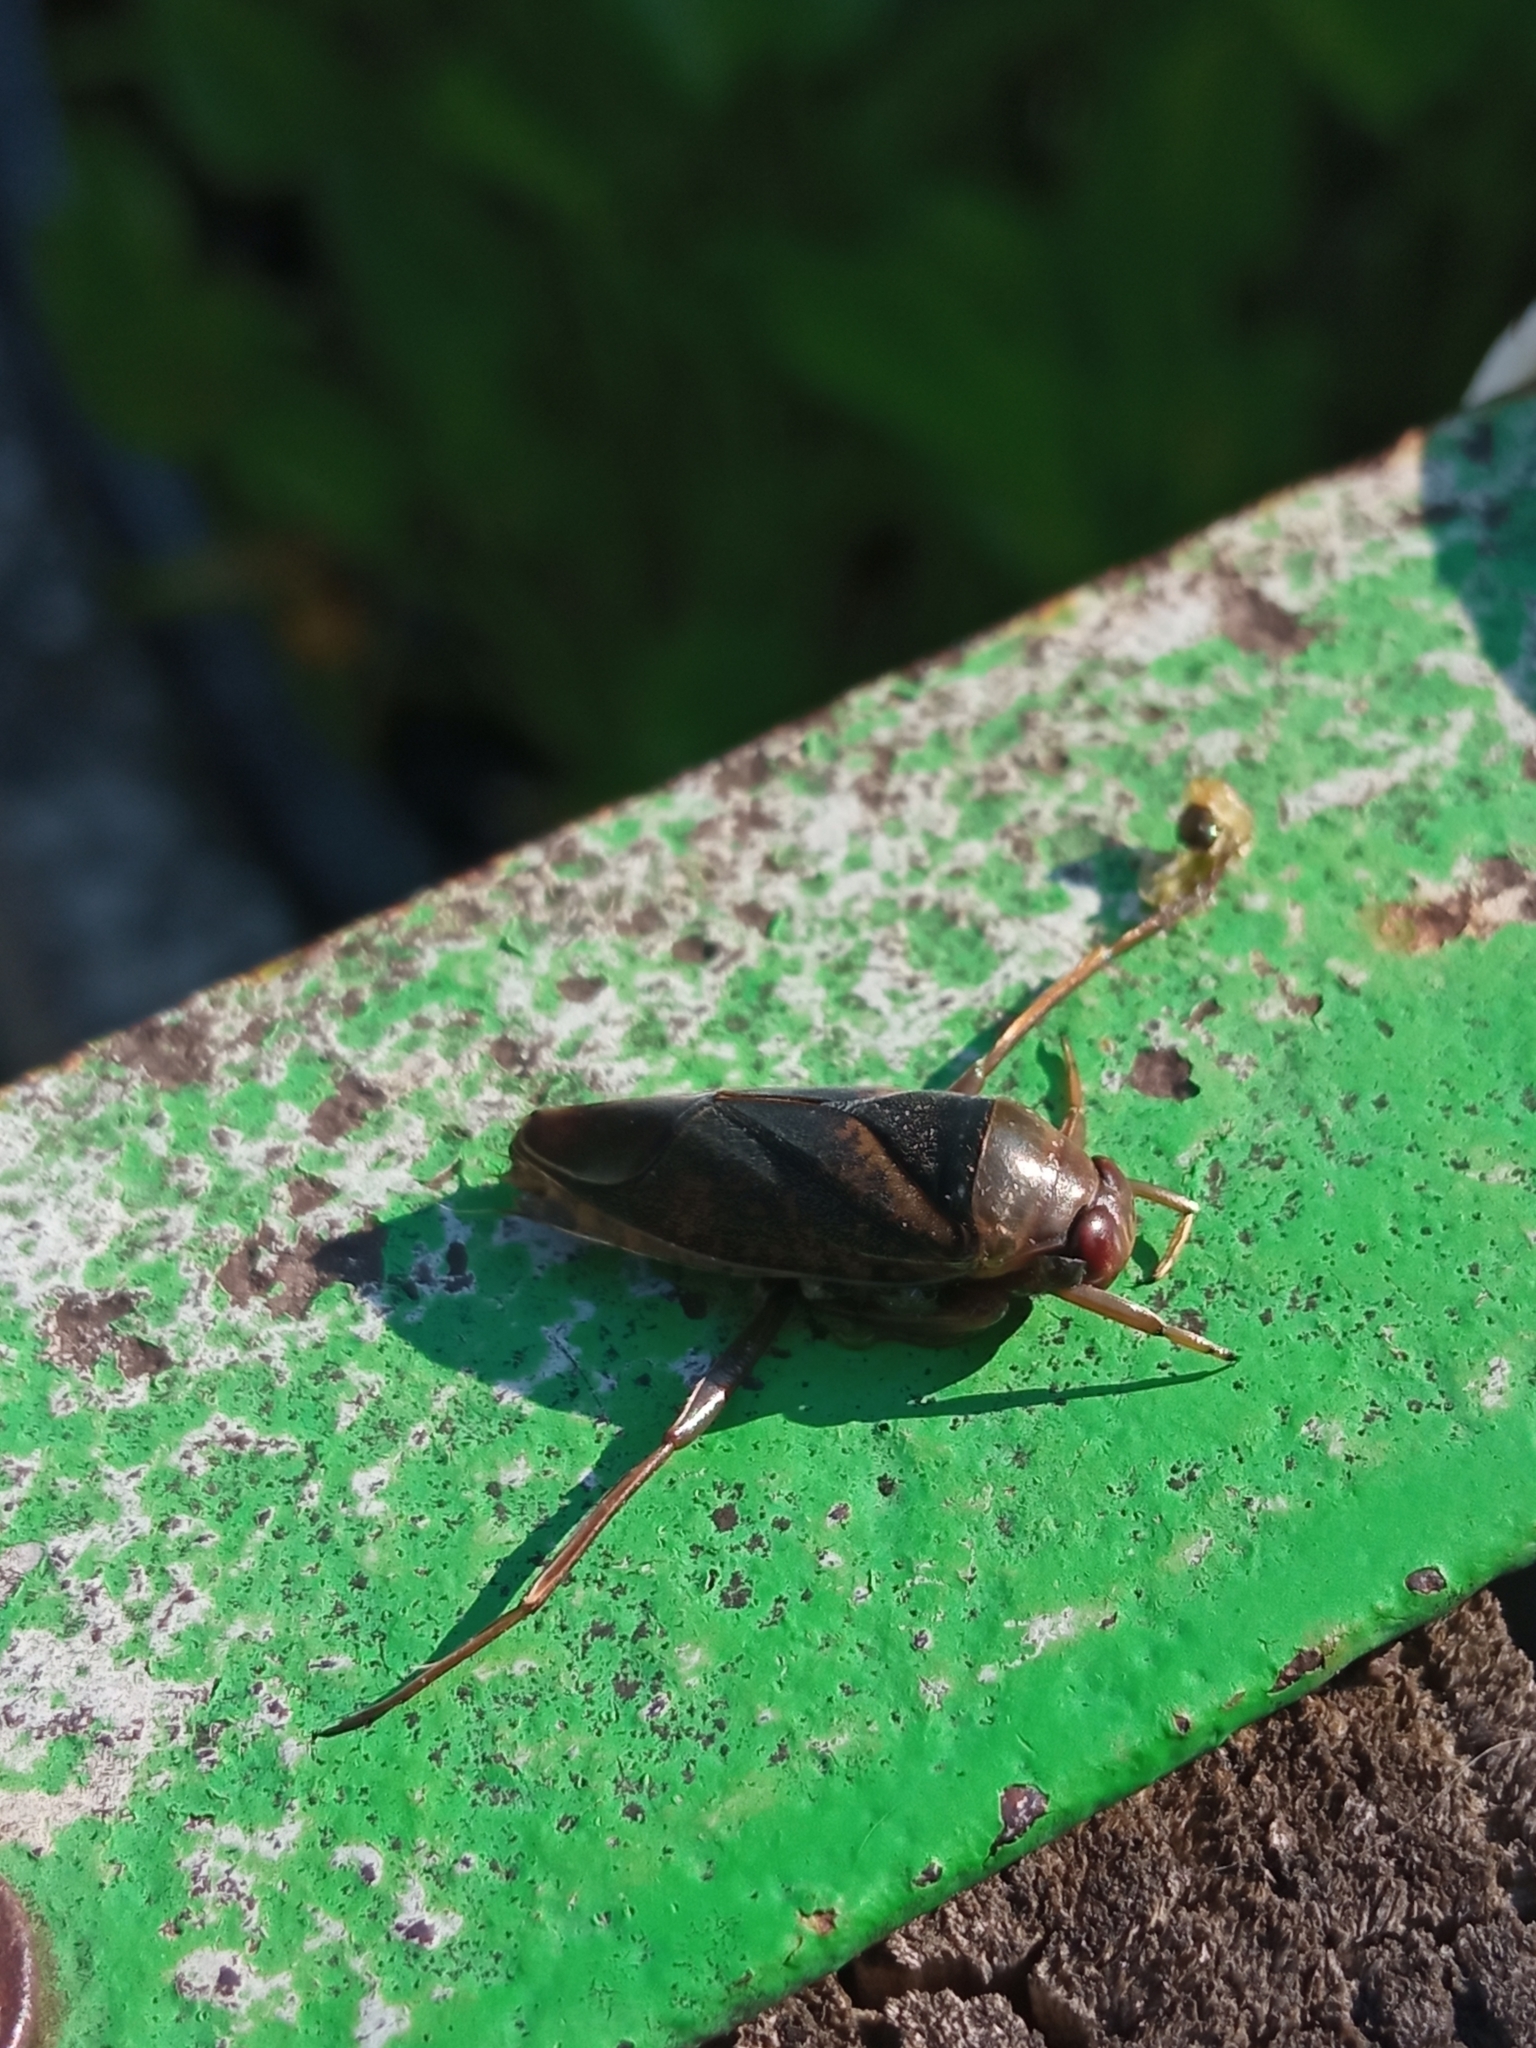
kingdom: Animalia
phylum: Arthropoda
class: Insecta
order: Hemiptera
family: Notonectidae
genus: Notonecta
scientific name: Notonecta maculata
